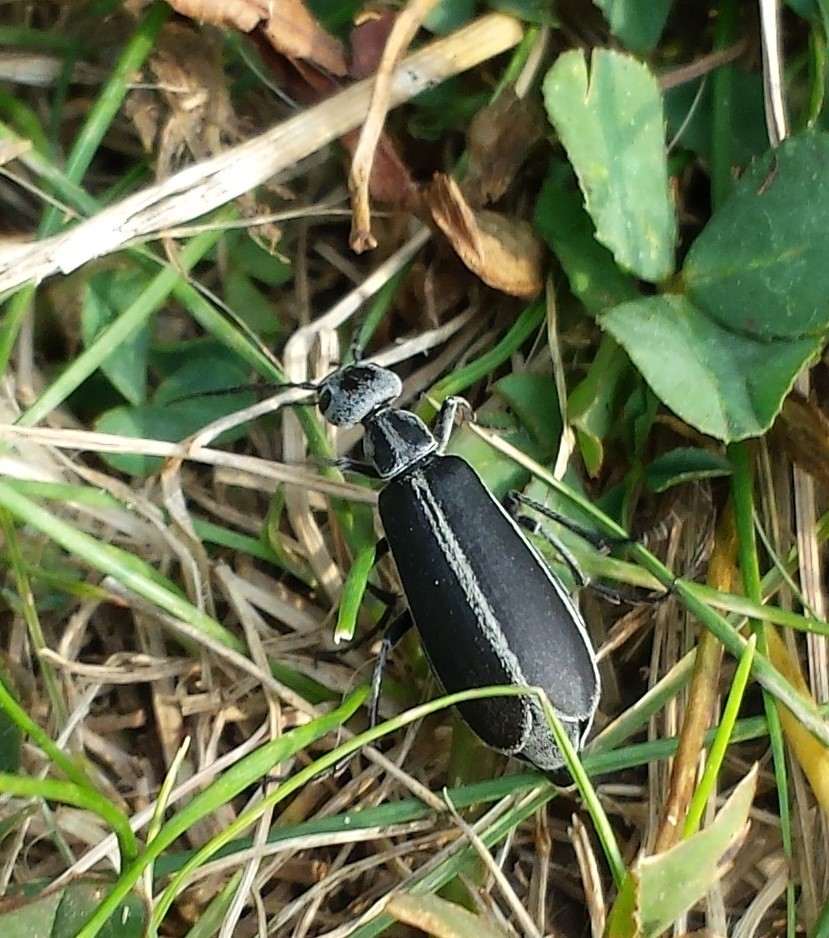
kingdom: Animalia
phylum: Arthropoda
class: Insecta
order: Coleoptera
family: Meloidae
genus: Epicauta
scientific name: Epicauta funebris
